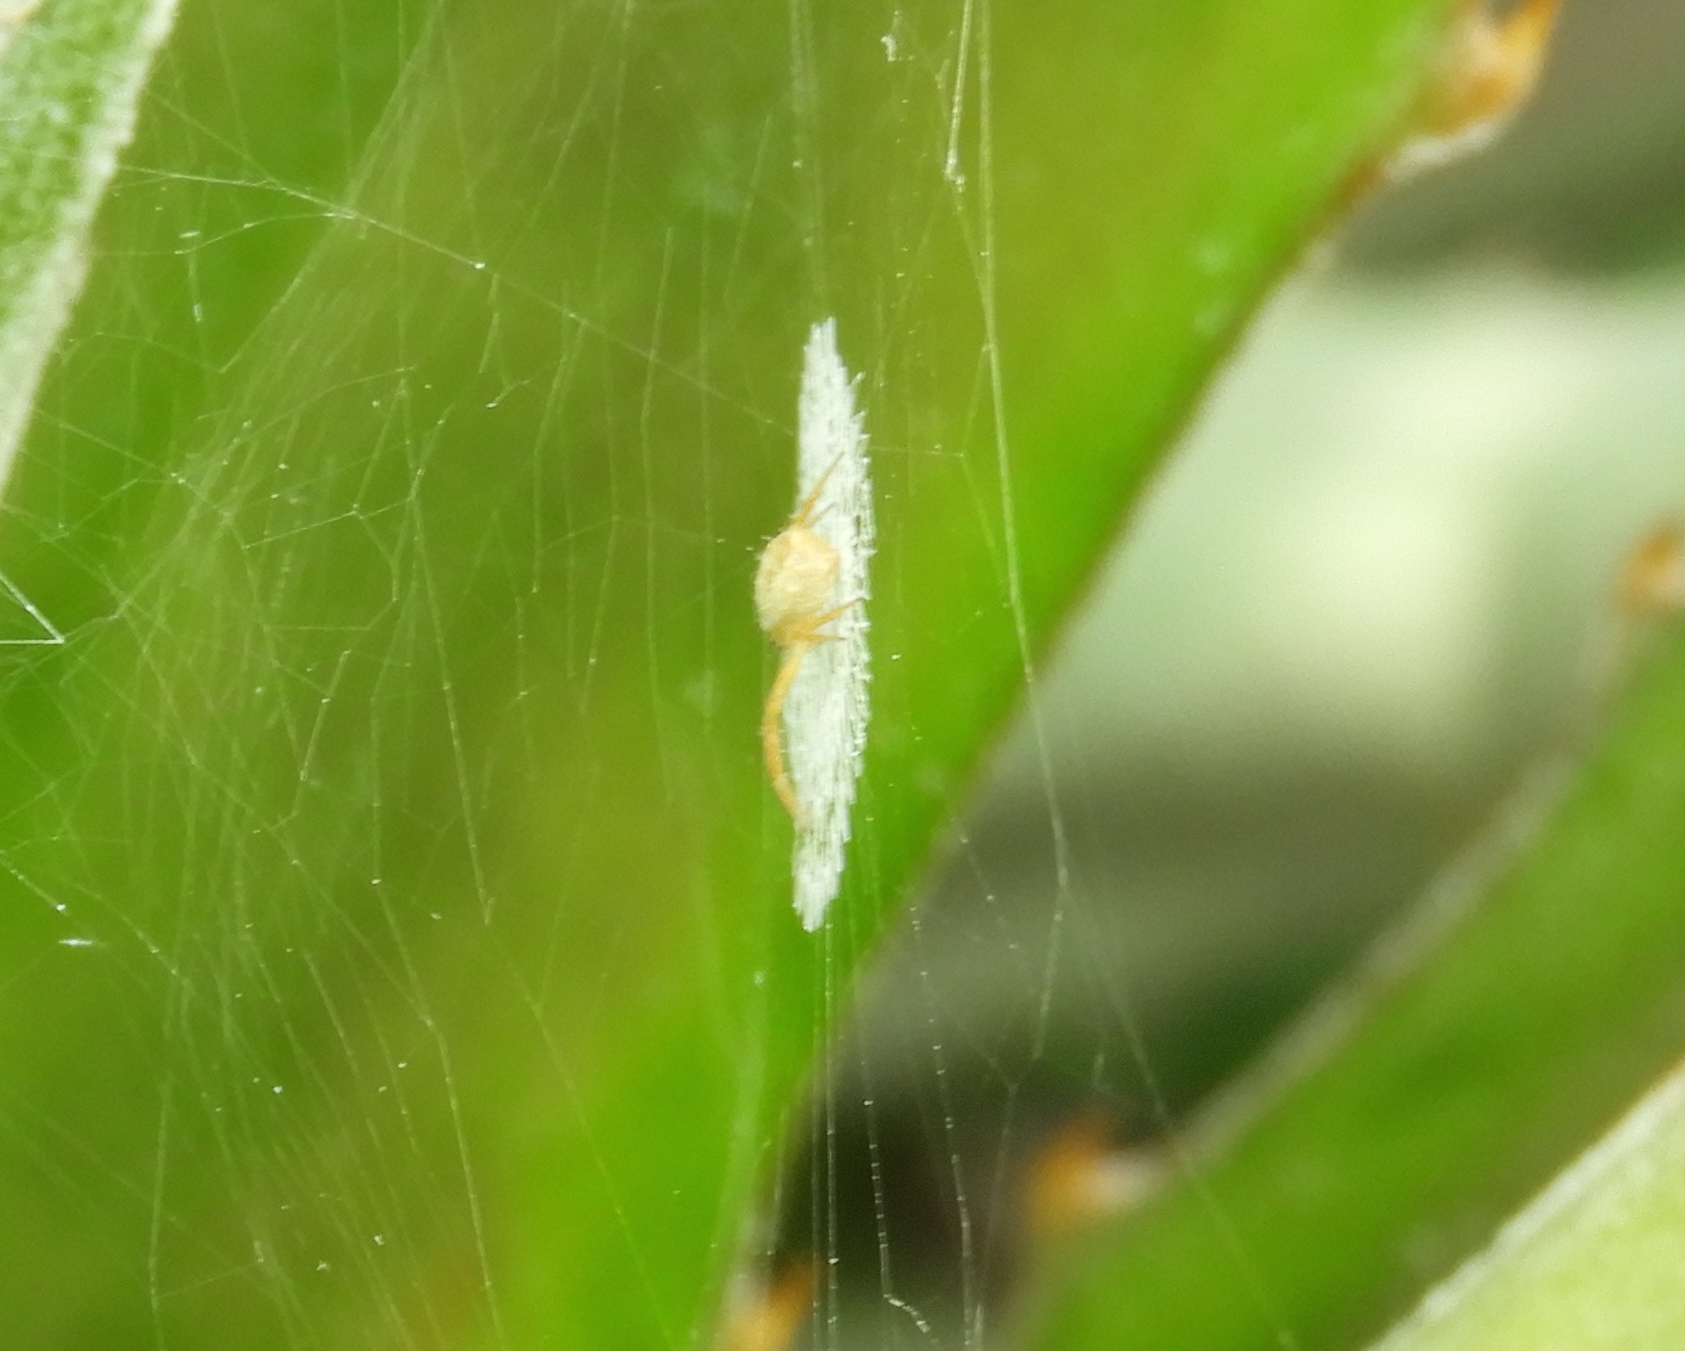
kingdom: Animalia
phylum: Arthropoda
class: Arachnida
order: Araneae
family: Araneidae
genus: Argiope
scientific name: Argiope
